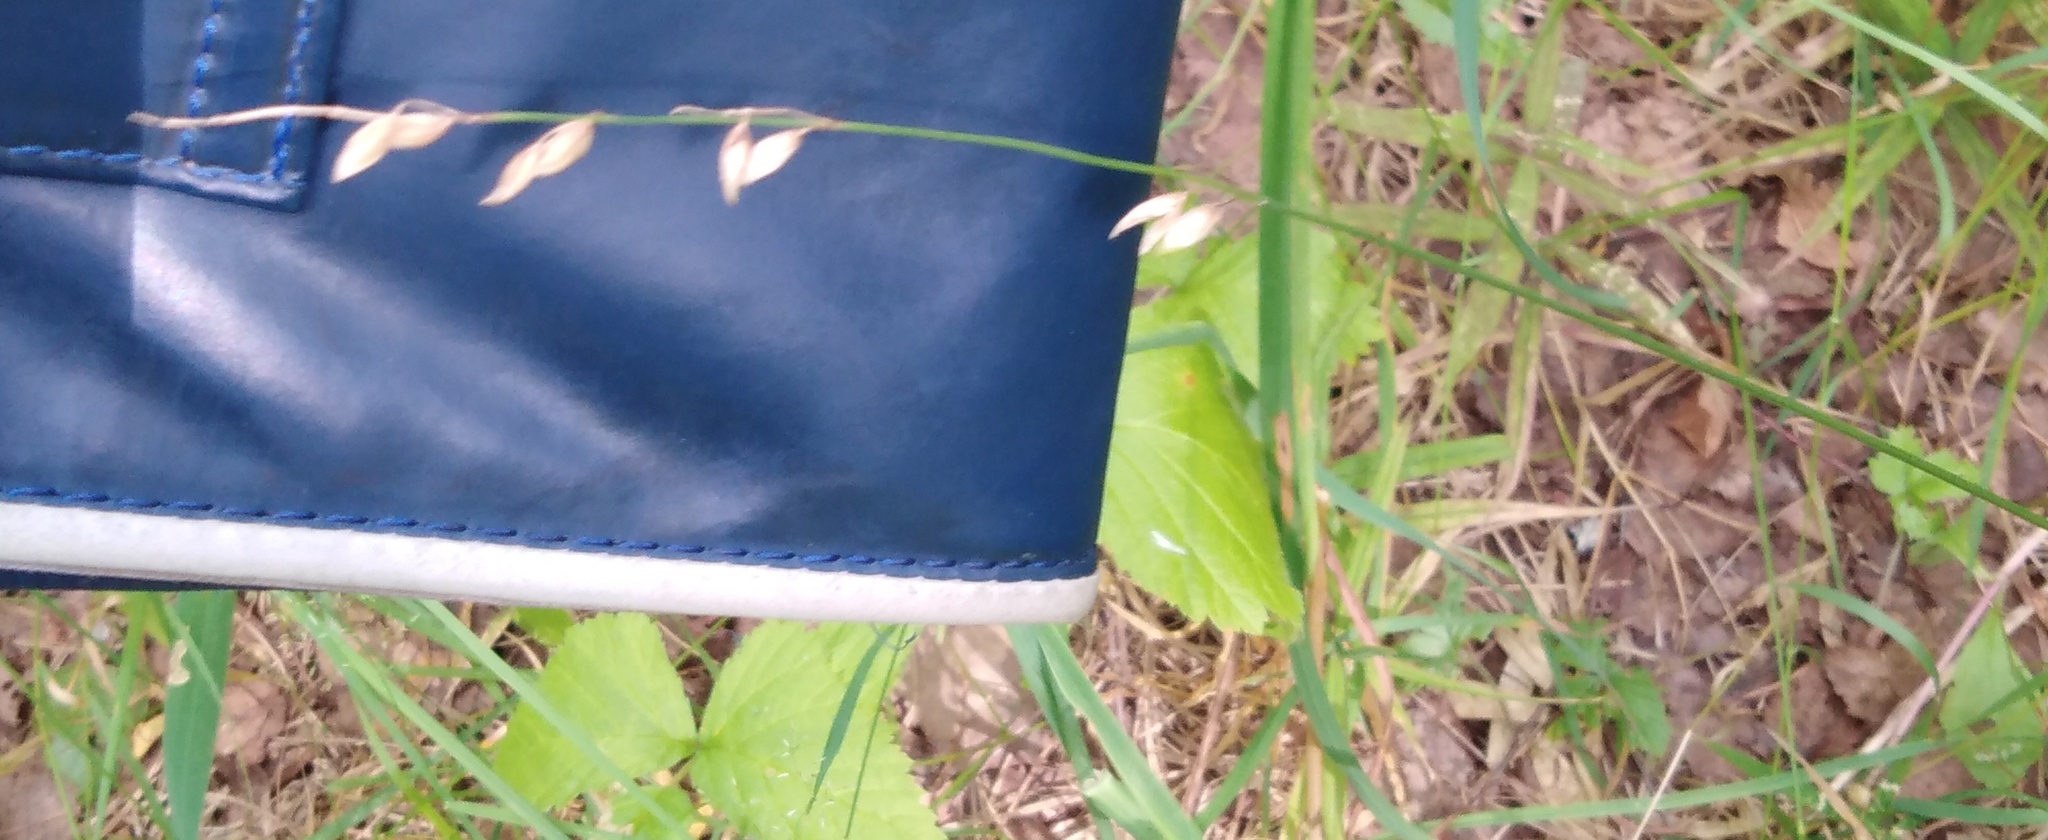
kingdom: Plantae
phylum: Tracheophyta
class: Liliopsida
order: Poales
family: Poaceae
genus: Melica
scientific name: Melica nutans
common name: Mountain melick
